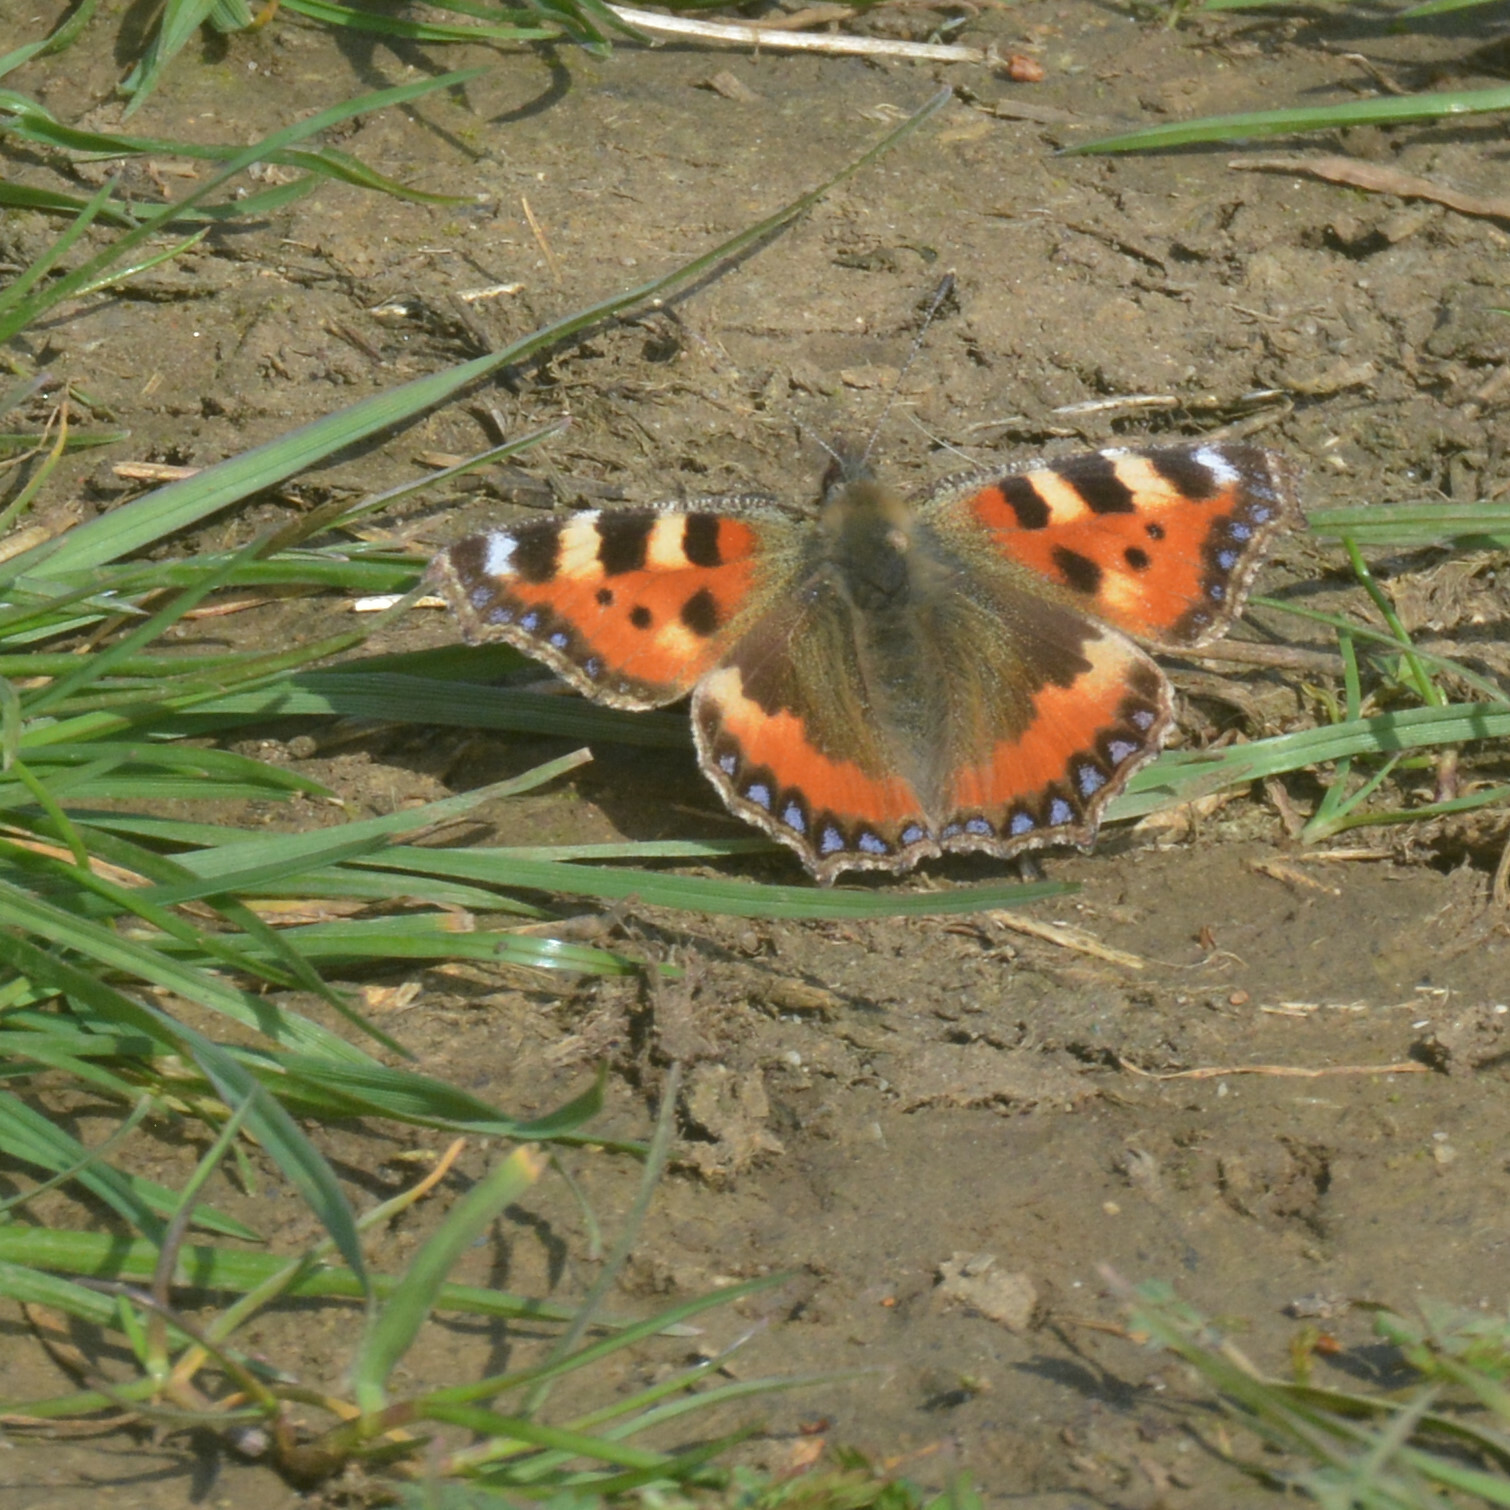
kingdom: Animalia
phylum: Arthropoda
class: Insecta
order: Lepidoptera
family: Nymphalidae
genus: Aglais
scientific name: Aglais urticae
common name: Small tortoiseshell
